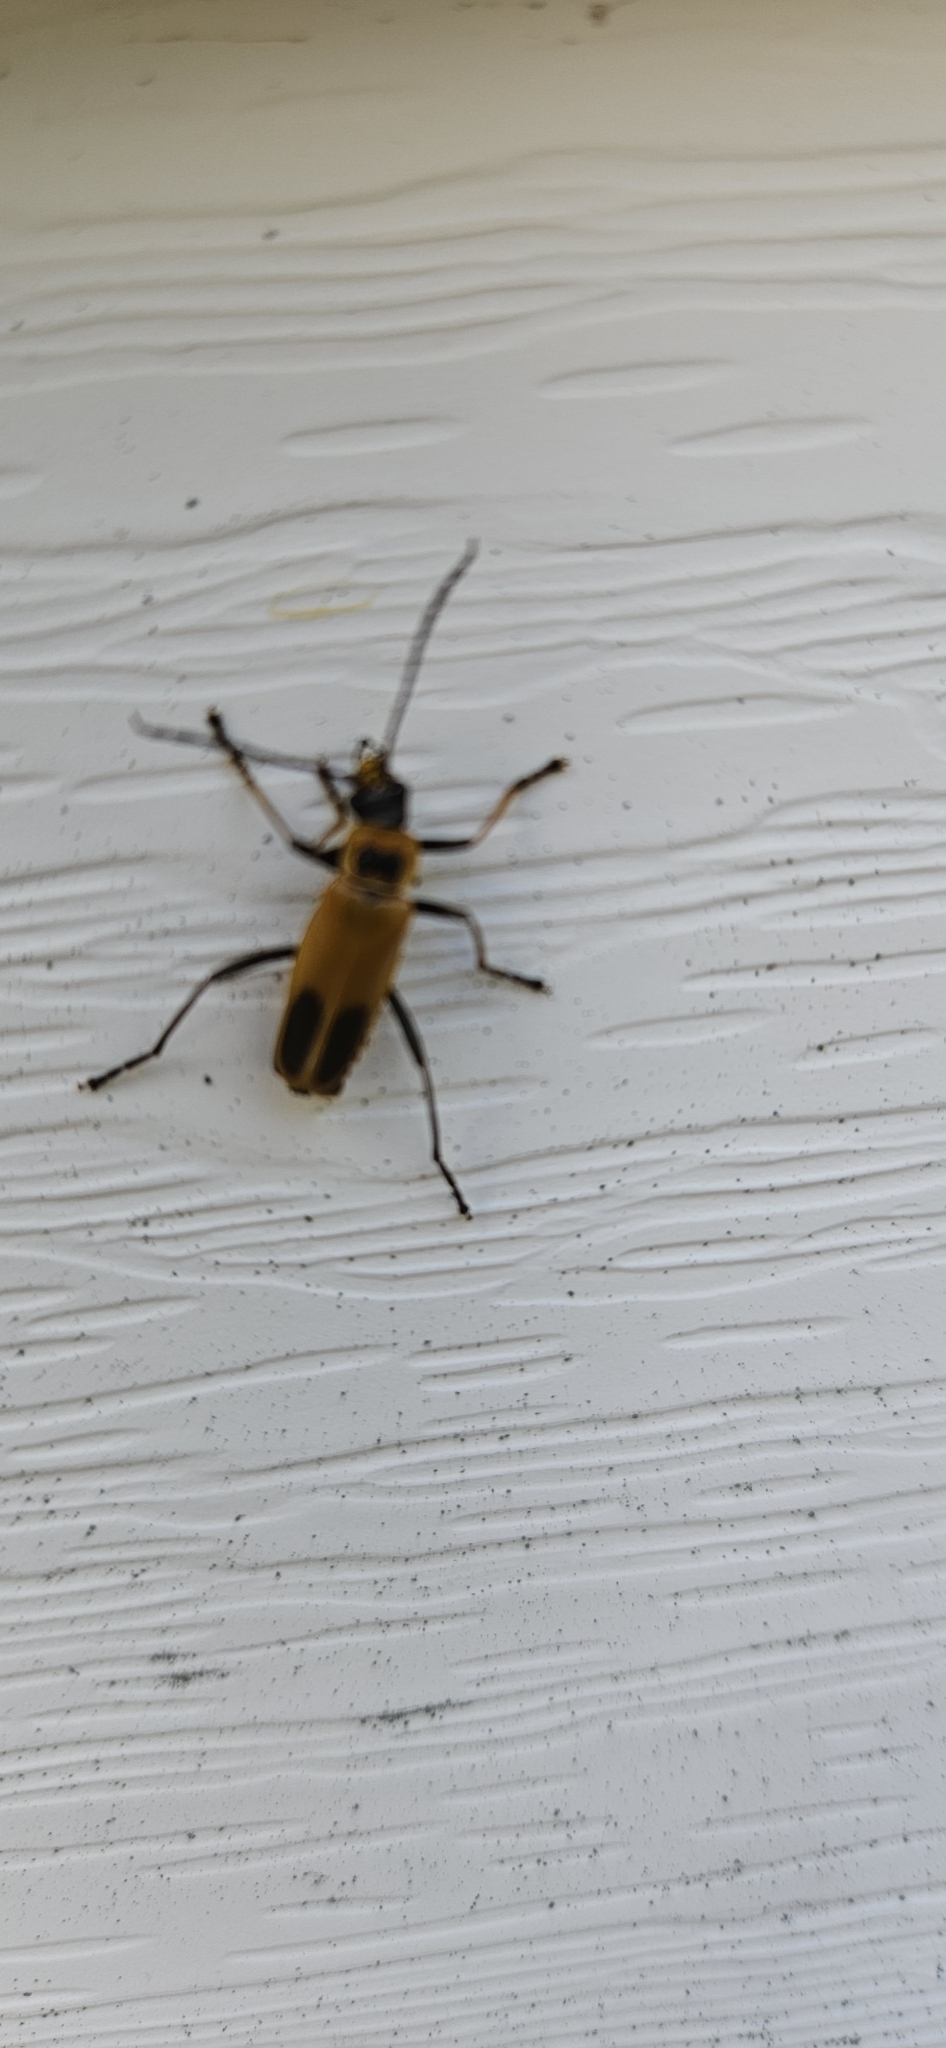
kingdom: Animalia
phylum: Arthropoda
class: Insecta
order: Coleoptera
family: Cantharidae
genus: Chauliognathus
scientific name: Chauliognathus pensylvanicus
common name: Goldenrod soldier beetle
